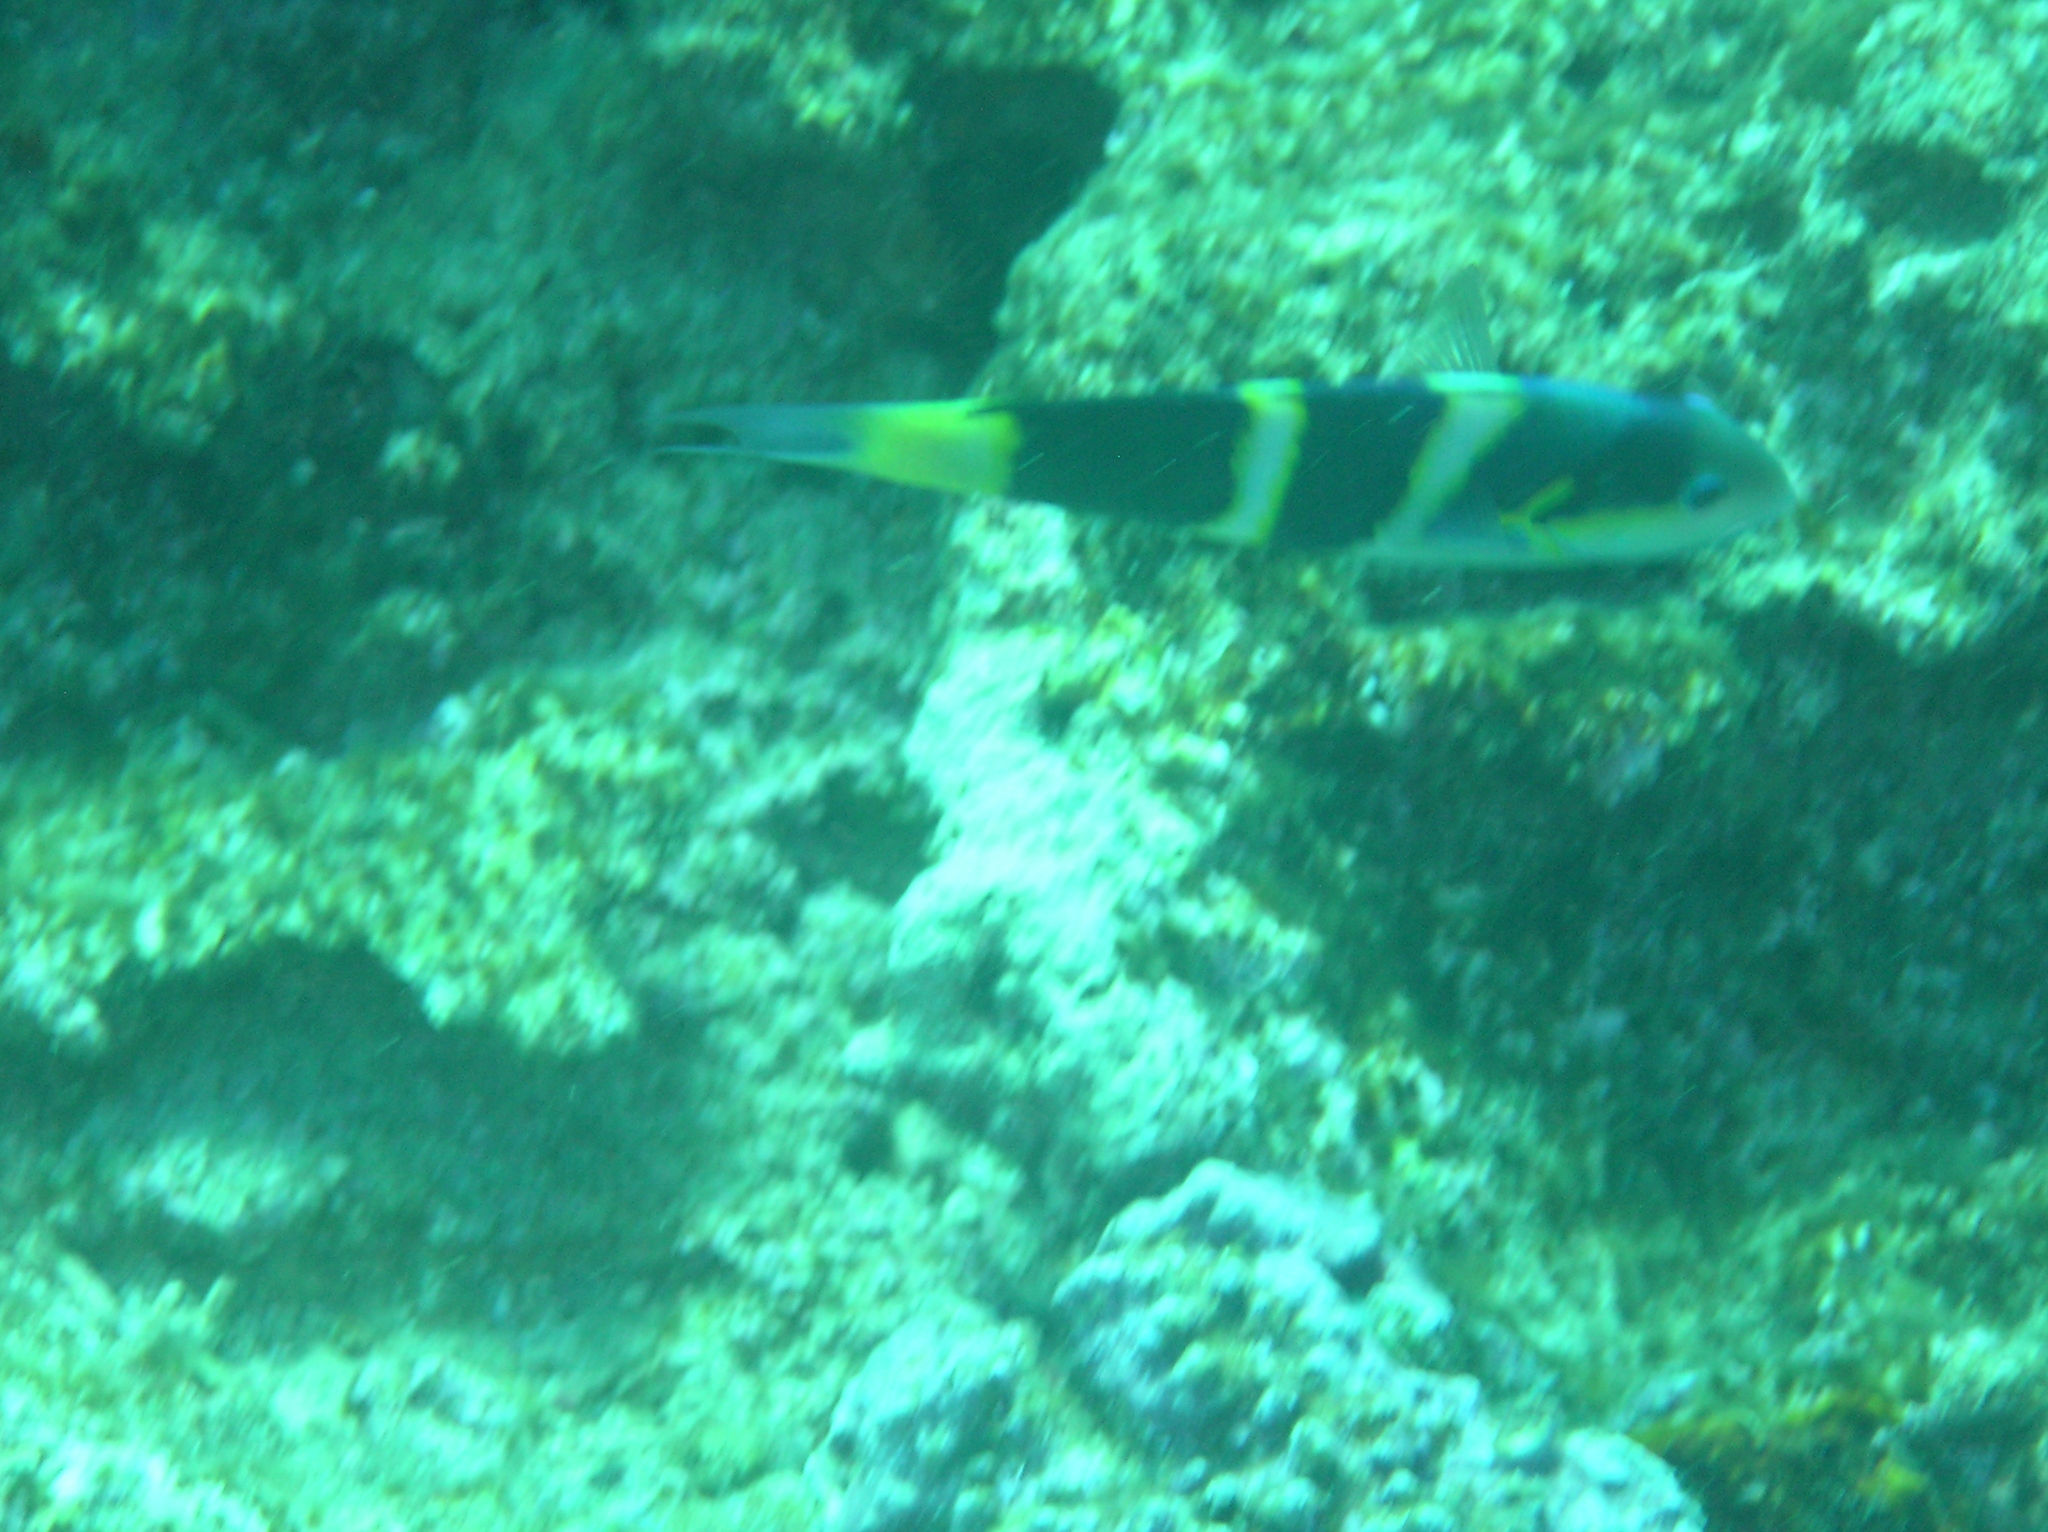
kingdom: Animalia
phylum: Chordata
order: Perciformes
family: Labridae
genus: Thalassoma
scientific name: Thalassoma nigrofasciatum
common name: Black-barred wrasse
